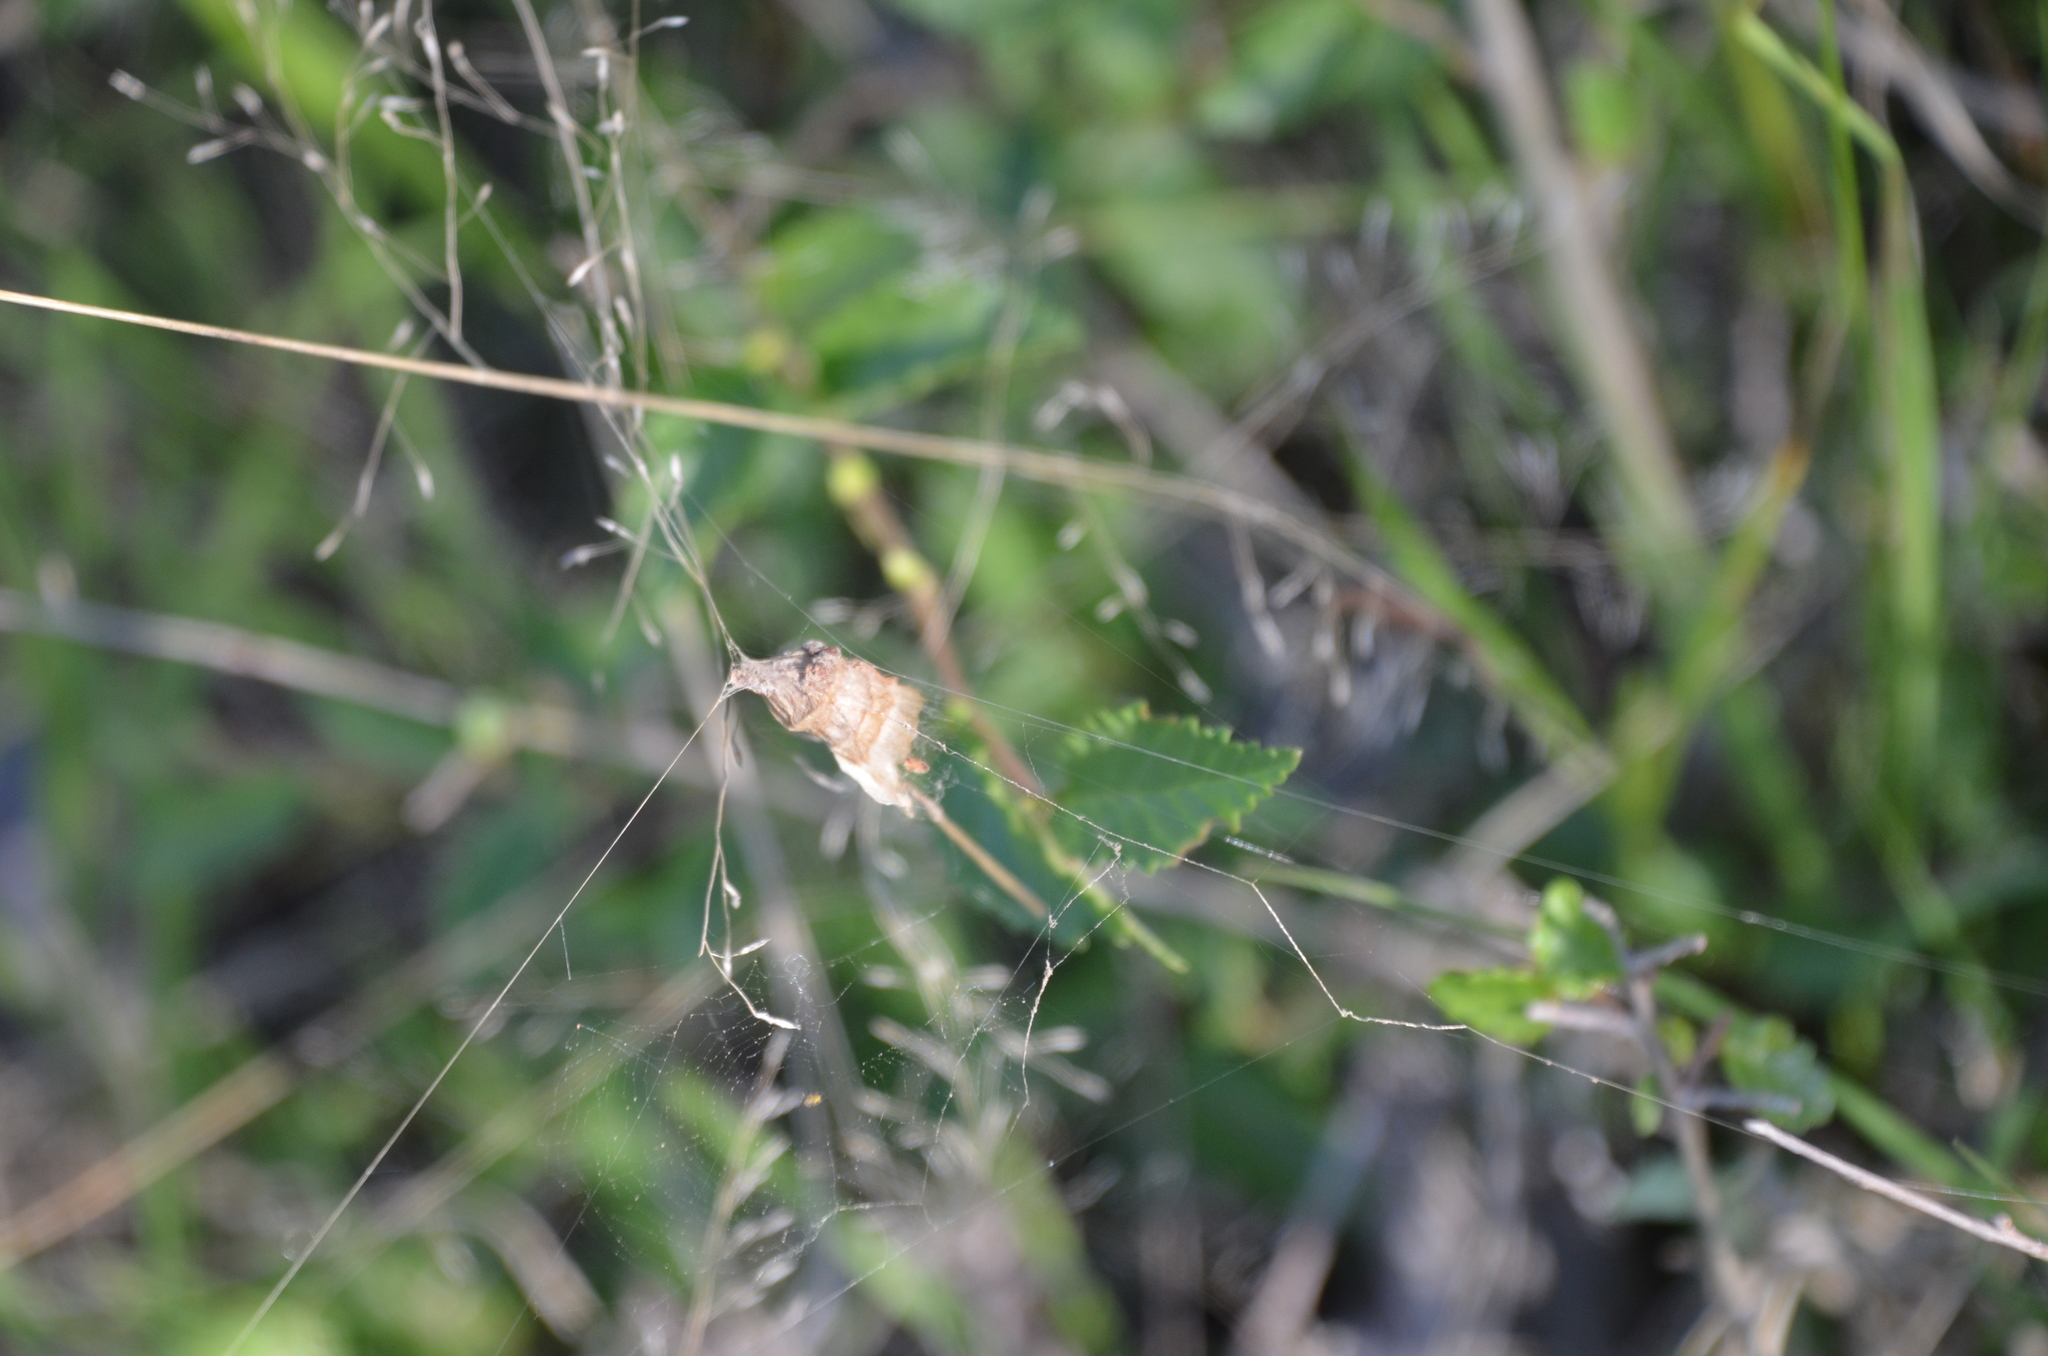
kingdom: Animalia
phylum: Arthropoda
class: Arachnida
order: Araneae
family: Araneidae
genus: Metepeira
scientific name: Metepeira
